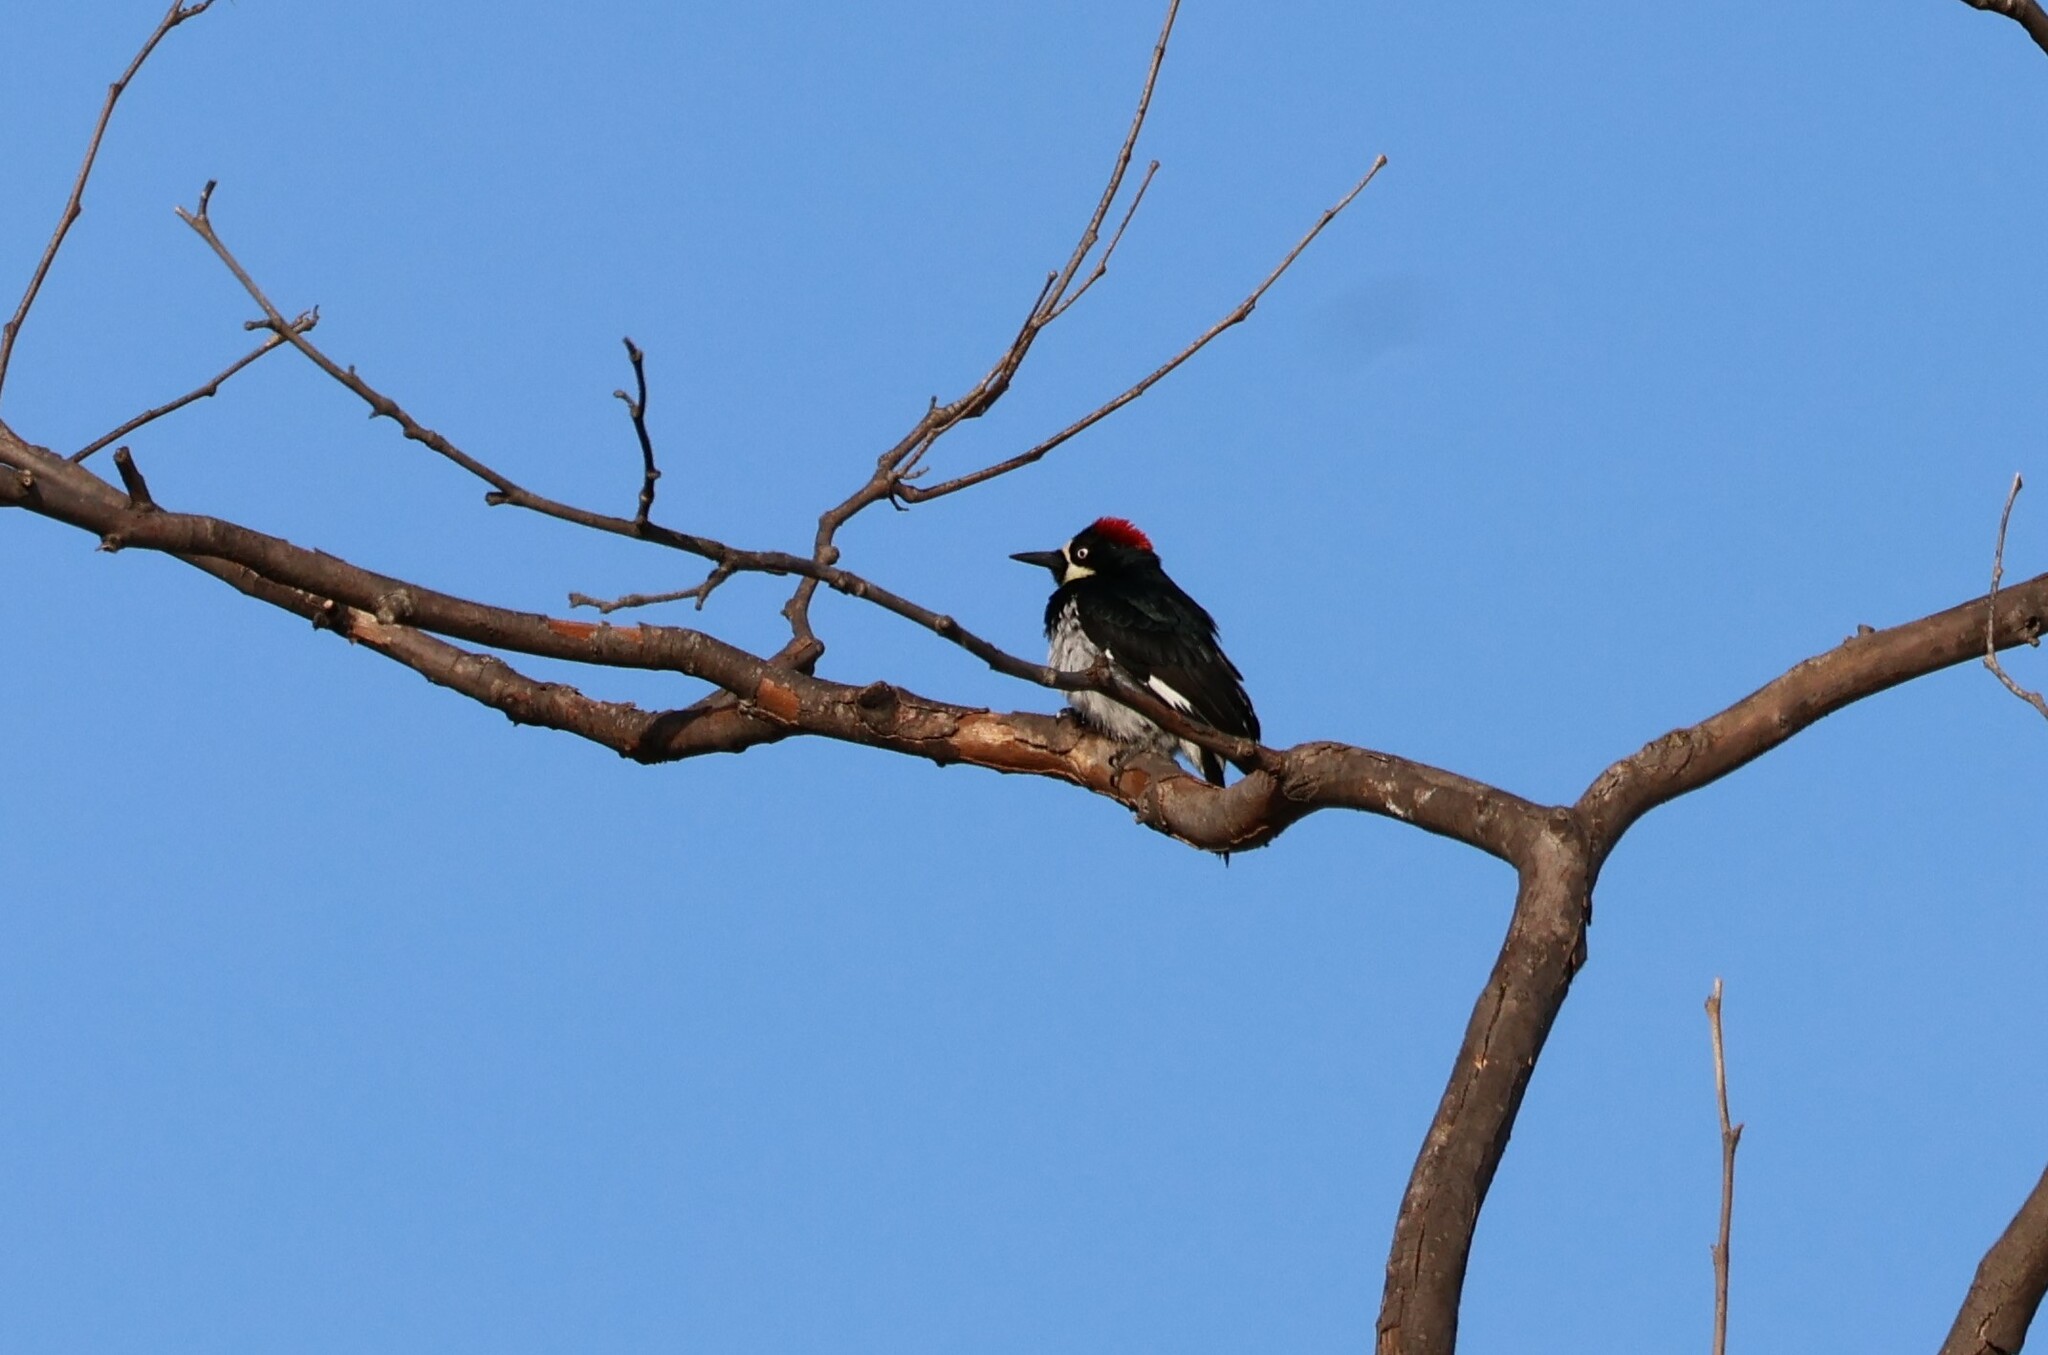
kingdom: Animalia
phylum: Chordata
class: Aves
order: Piciformes
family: Picidae
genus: Melanerpes
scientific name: Melanerpes formicivorus
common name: Acorn woodpecker
